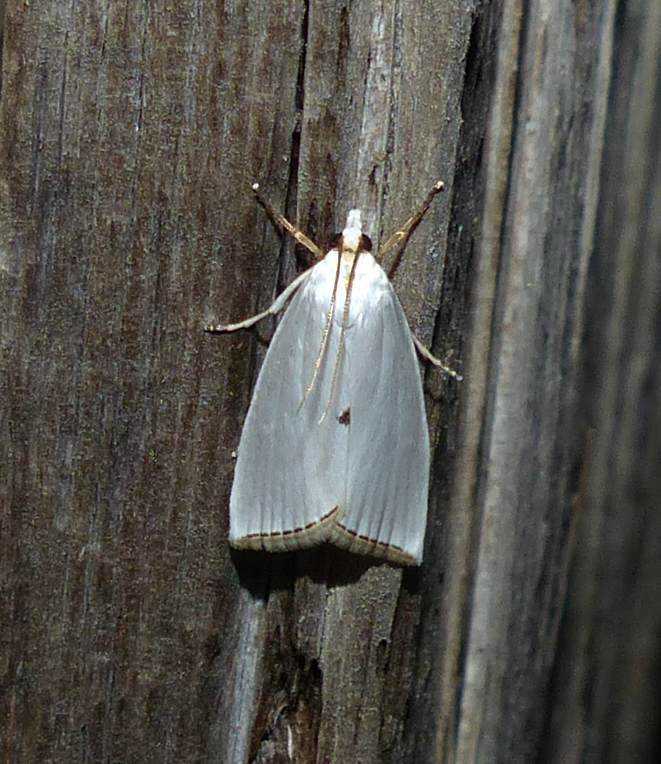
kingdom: Animalia
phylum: Arthropoda
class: Insecta
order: Lepidoptera
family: Crambidae
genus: Argyria
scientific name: Argyria nivalis
